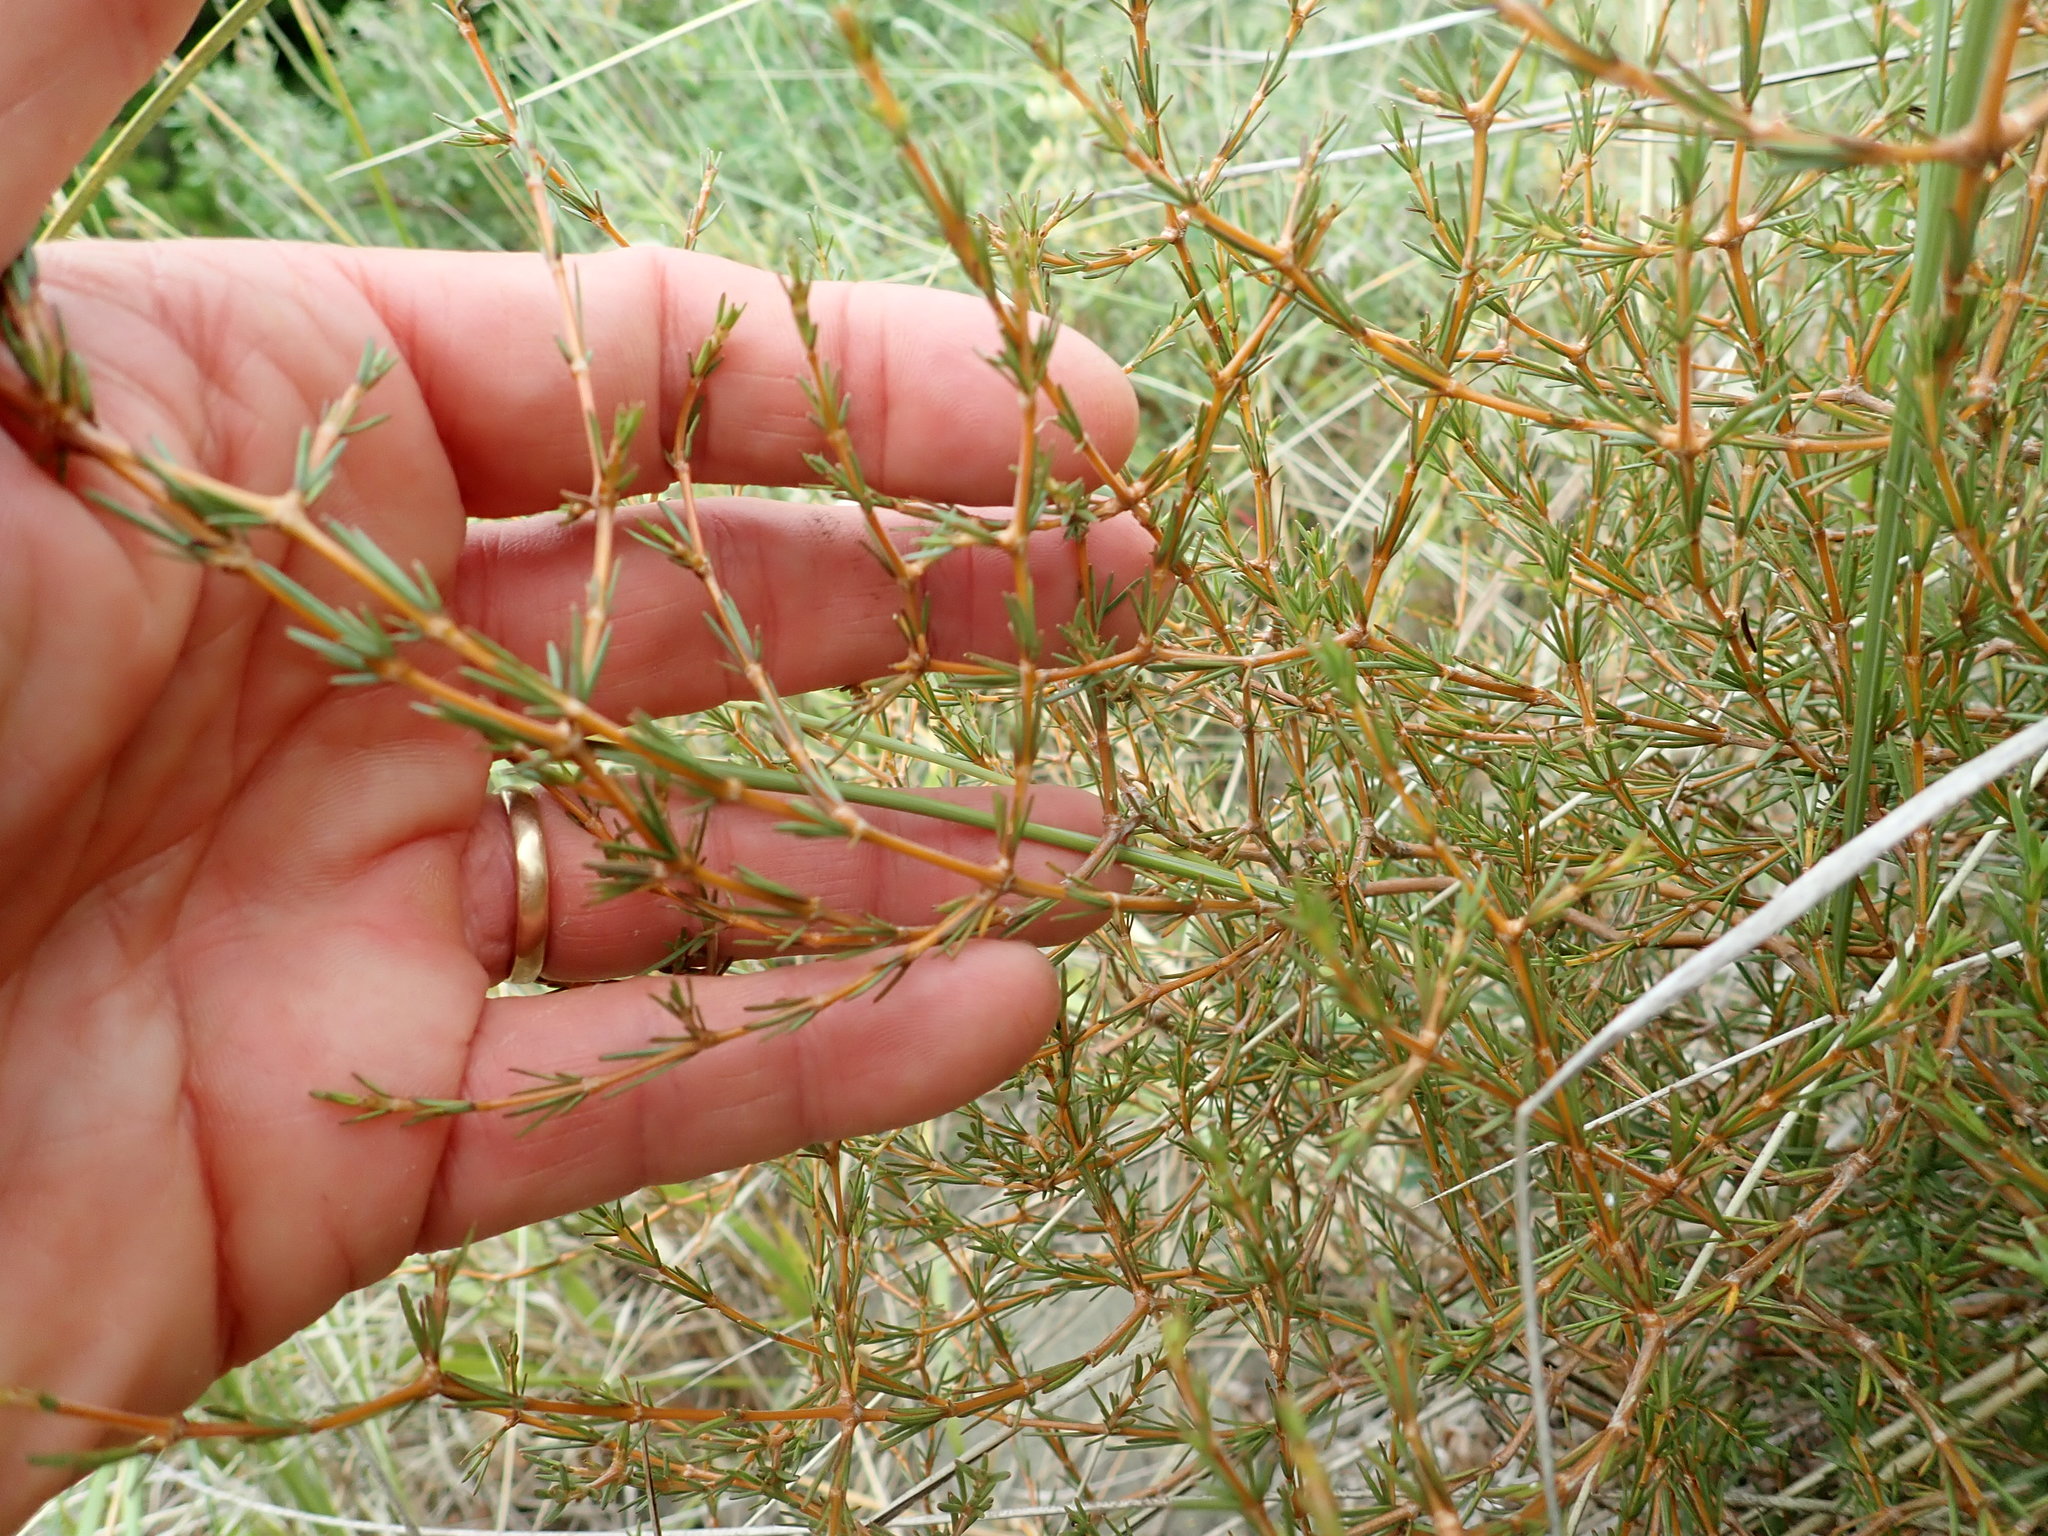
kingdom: Plantae
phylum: Tracheophyta
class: Magnoliopsida
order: Gentianales
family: Rubiaceae
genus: Coprosma
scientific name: Coprosma acerosa
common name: Sand coprosma
